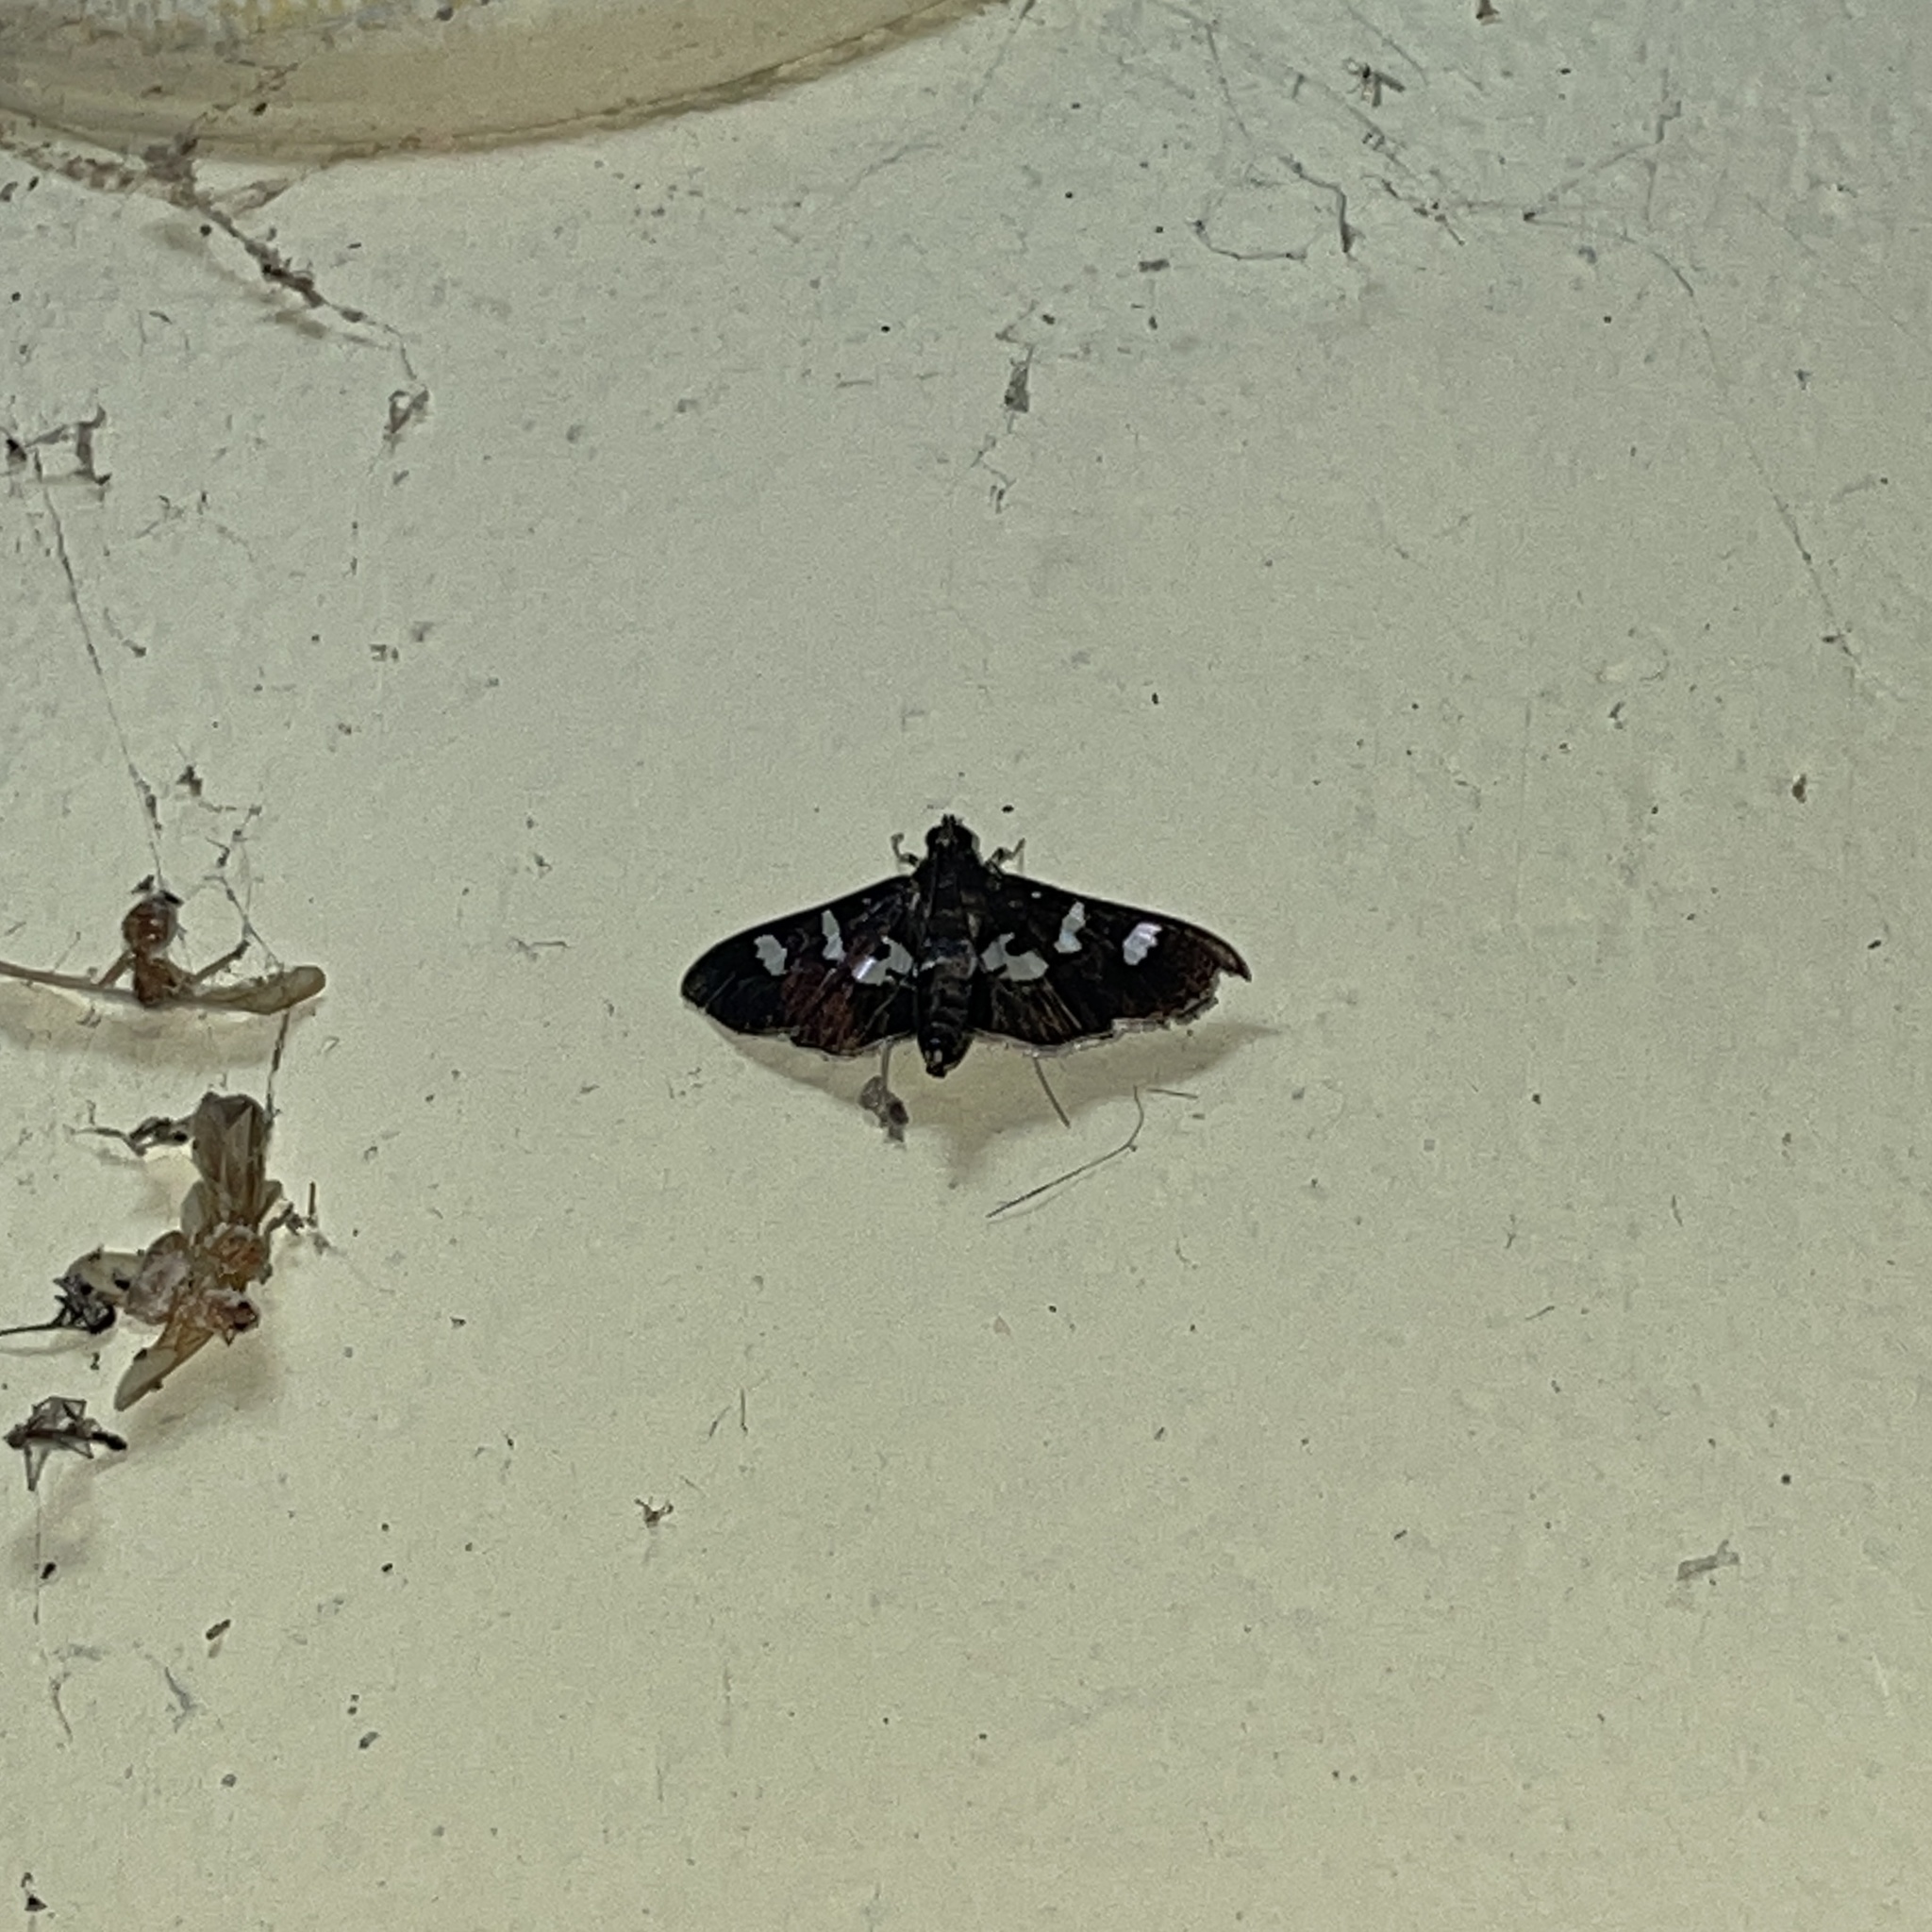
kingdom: Animalia
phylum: Arthropoda
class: Insecta
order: Lepidoptera
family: Crambidae
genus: Desmia
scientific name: Desmia tages
